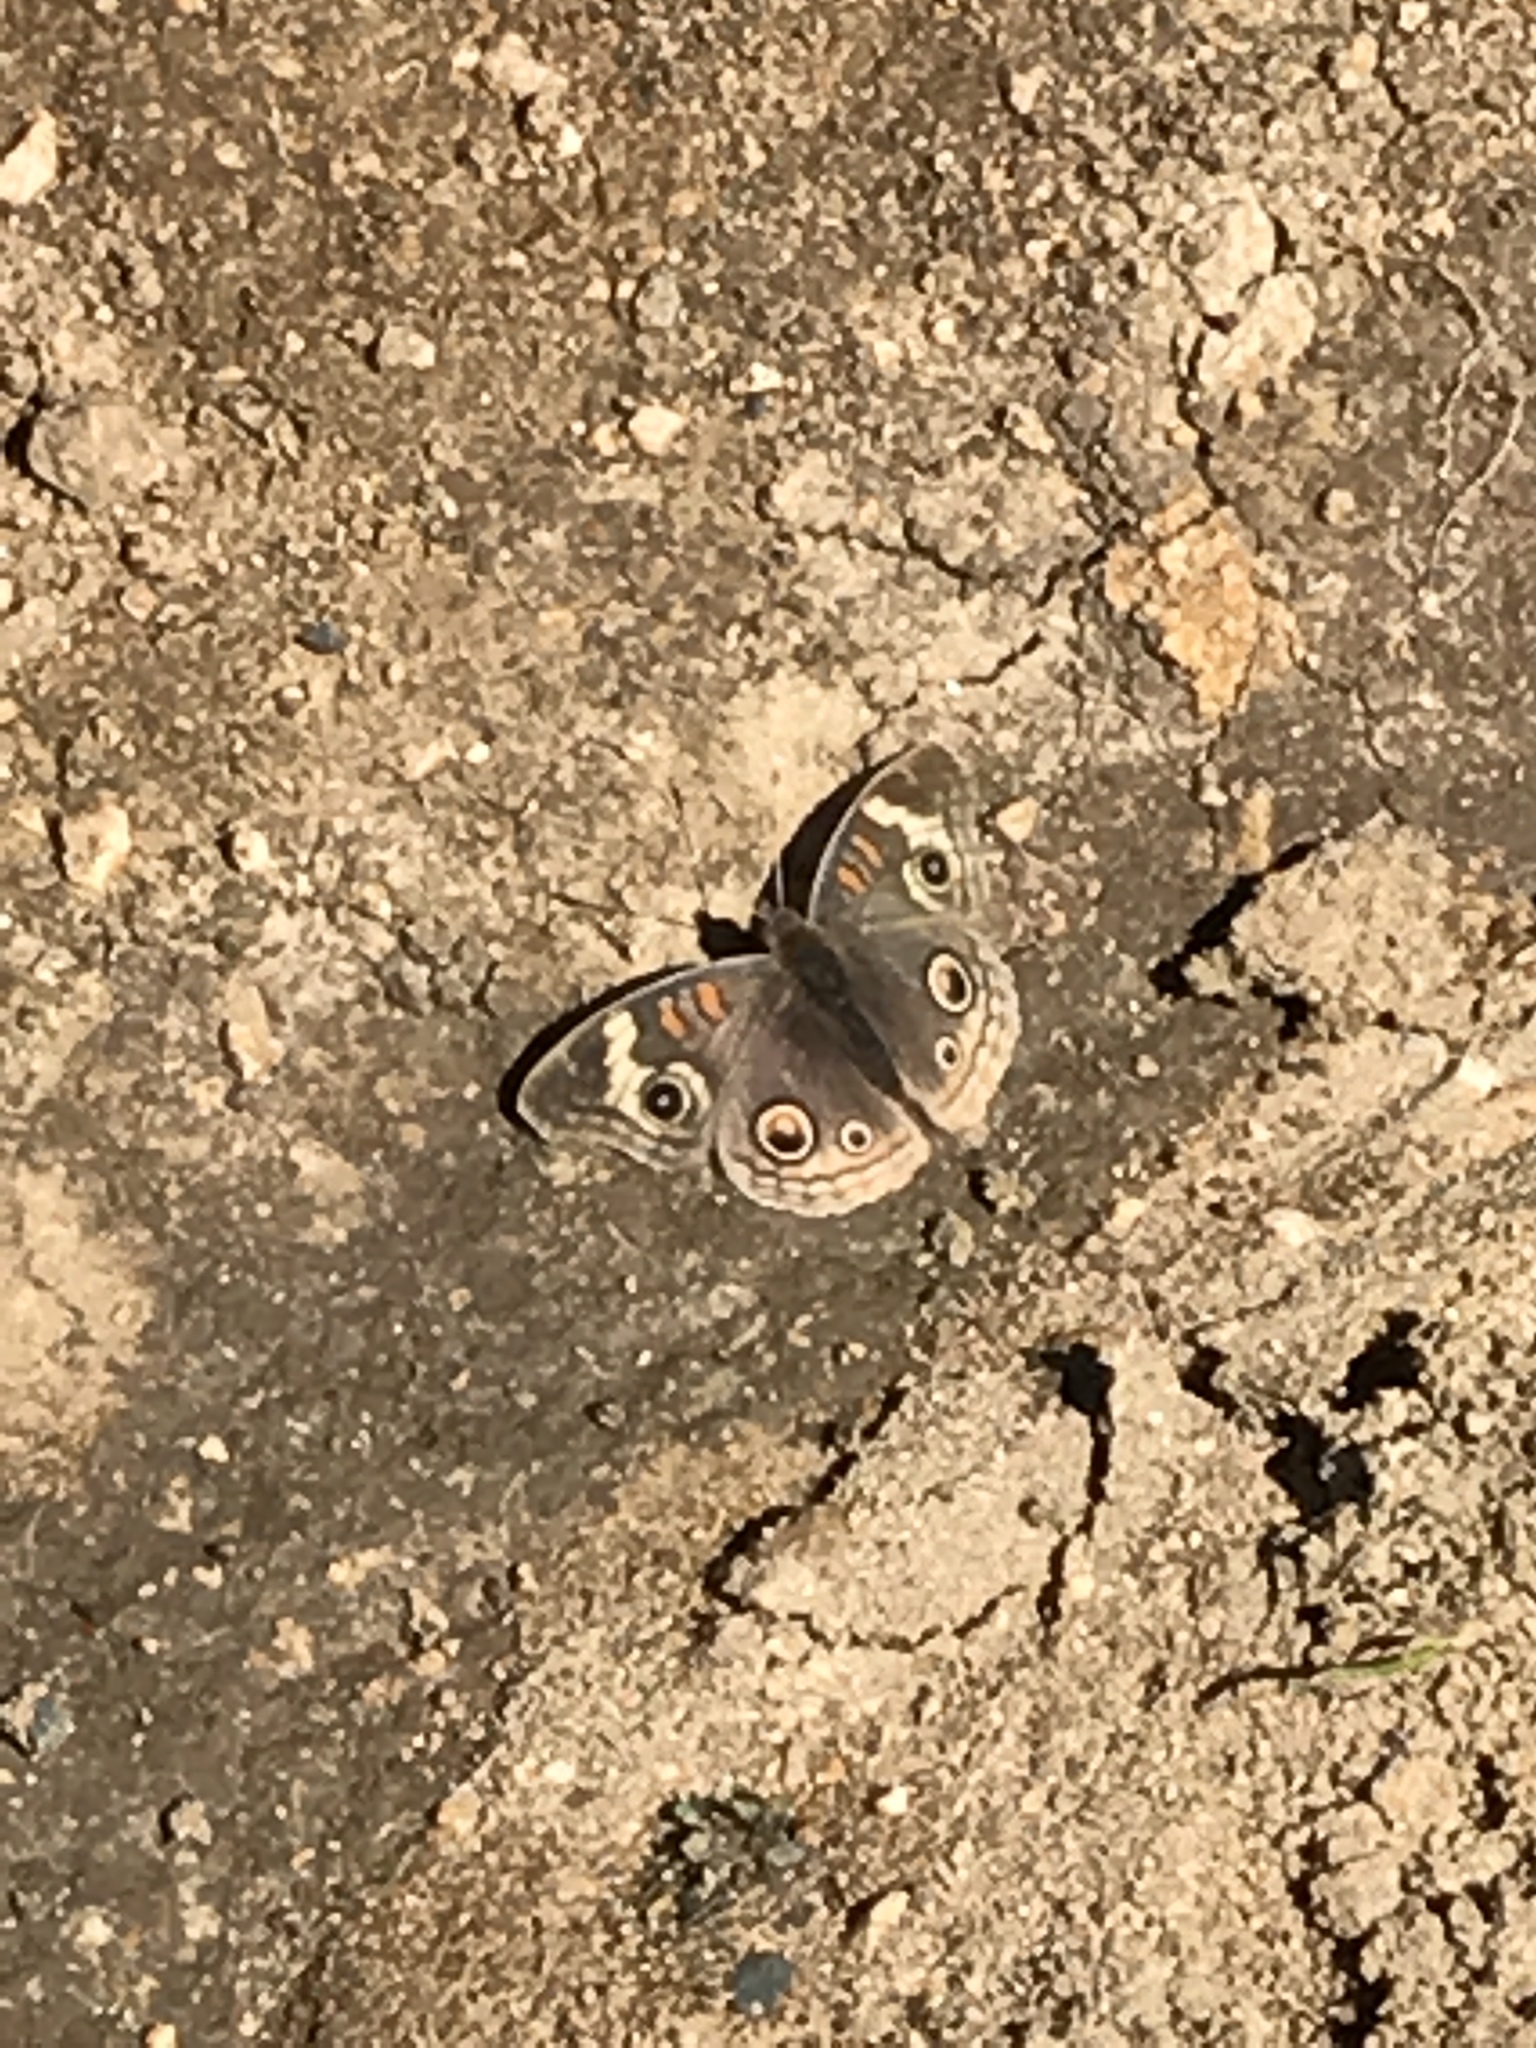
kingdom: Animalia
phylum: Arthropoda
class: Insecta
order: Lepidoptera
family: Nymphalidae
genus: Junonia
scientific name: Junonia grisea
